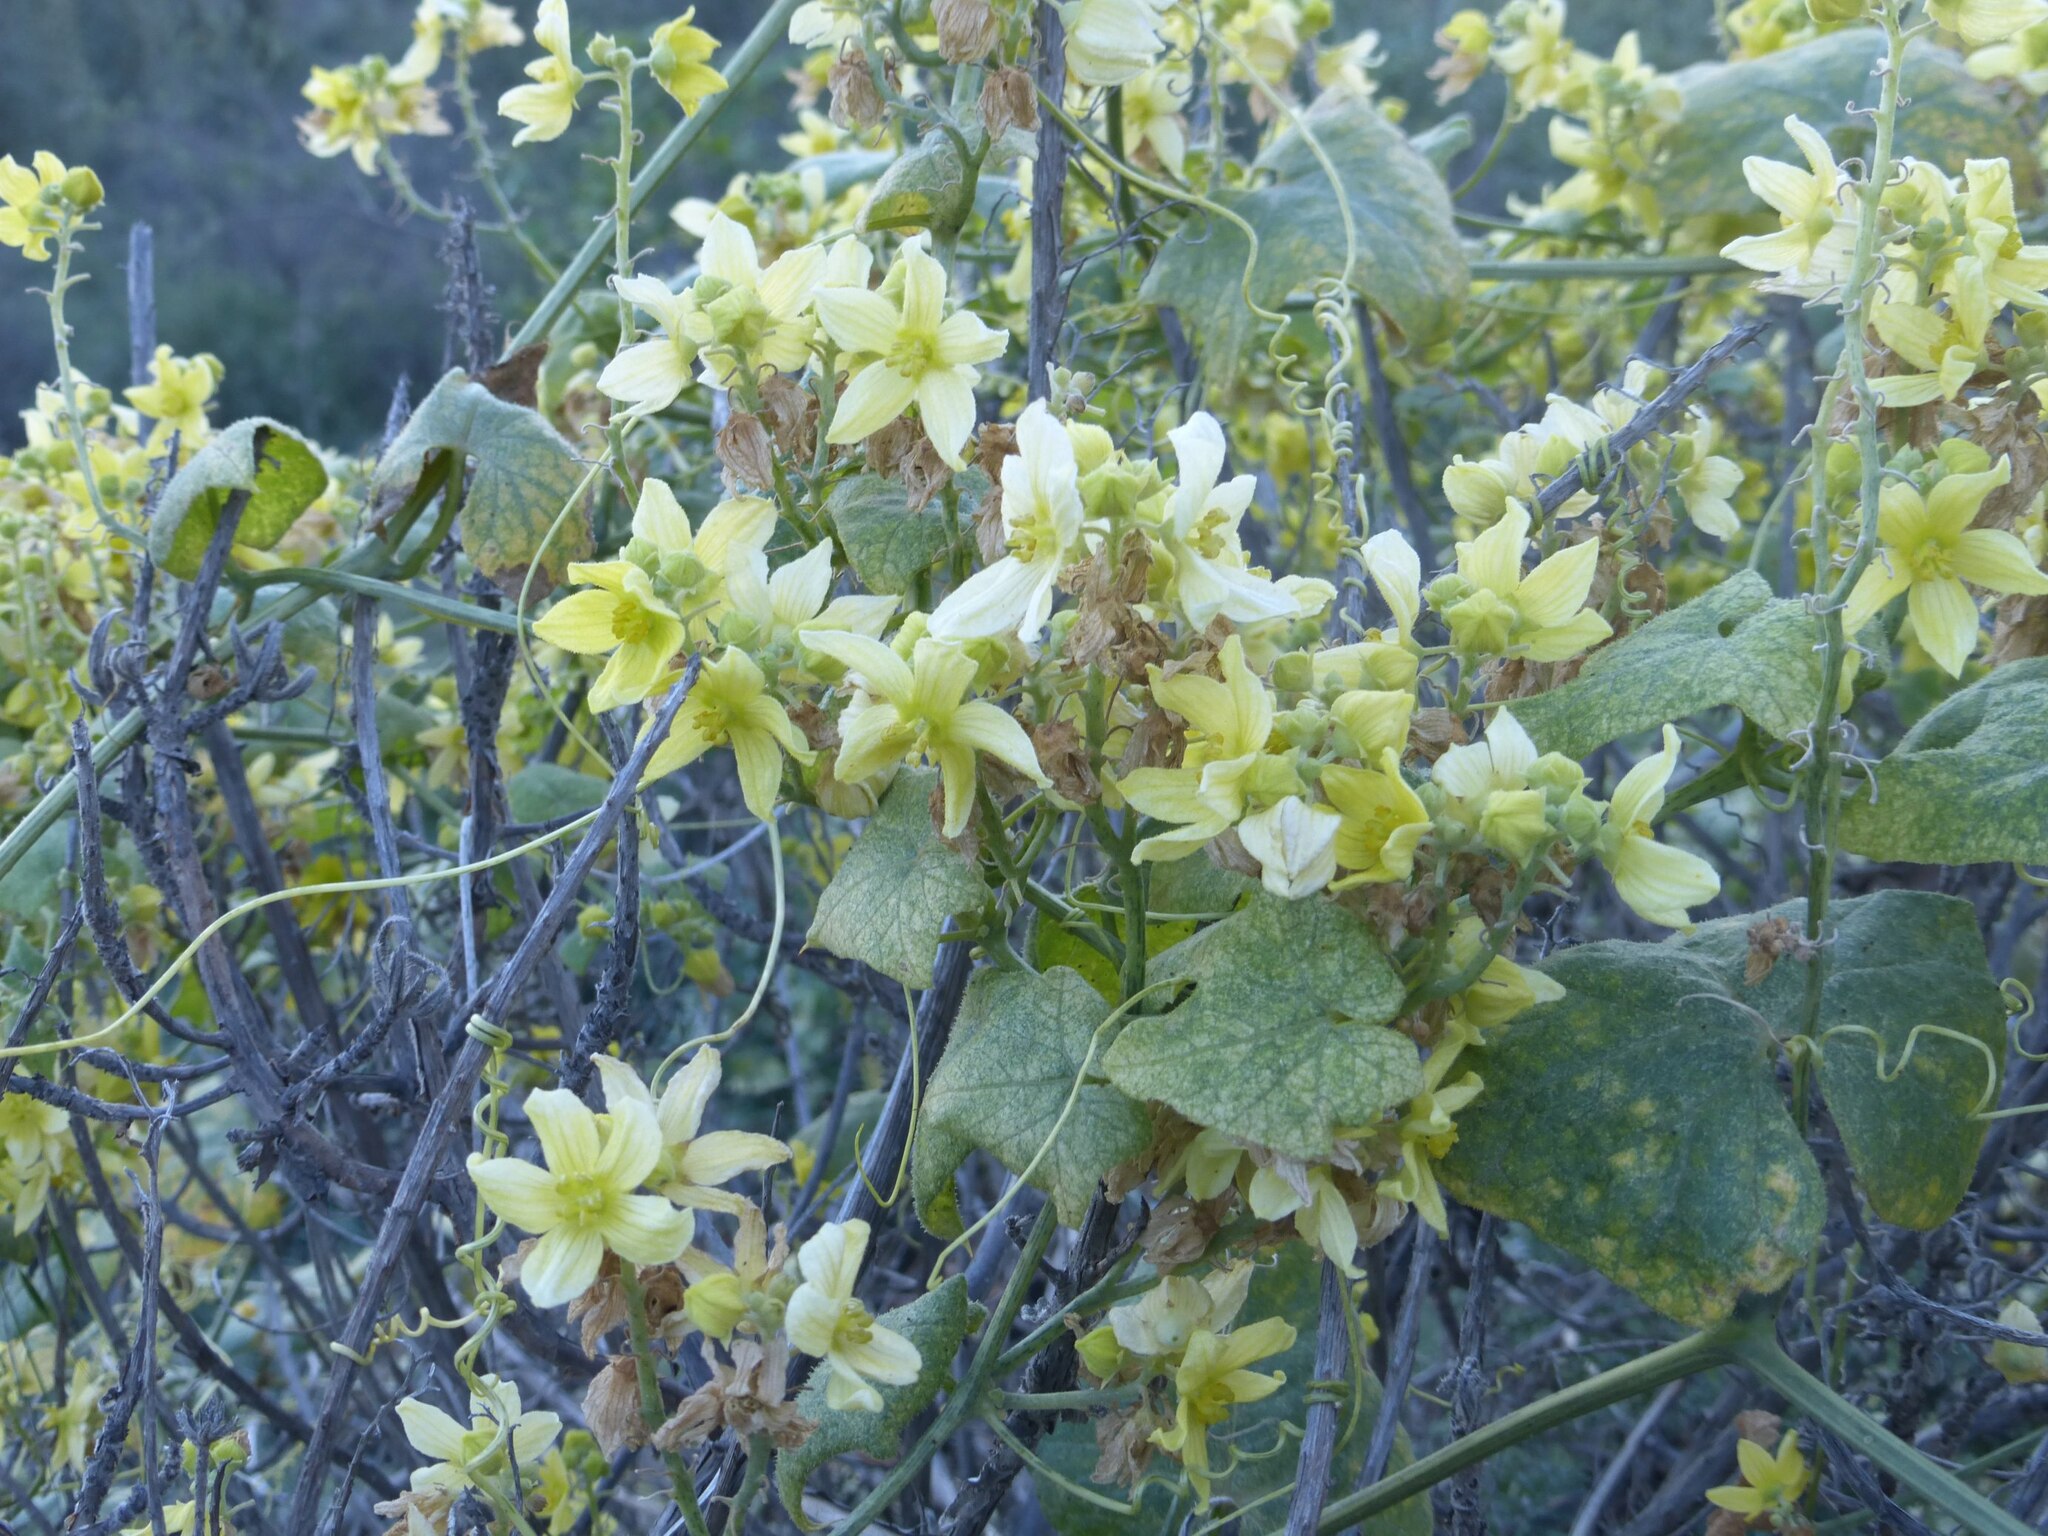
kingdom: Plantae
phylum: Tracheophyta
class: Magnoliopsida
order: Cucurbitales
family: Cucurbitaceae
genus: Bryonia
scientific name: Bryonia verrucosa
